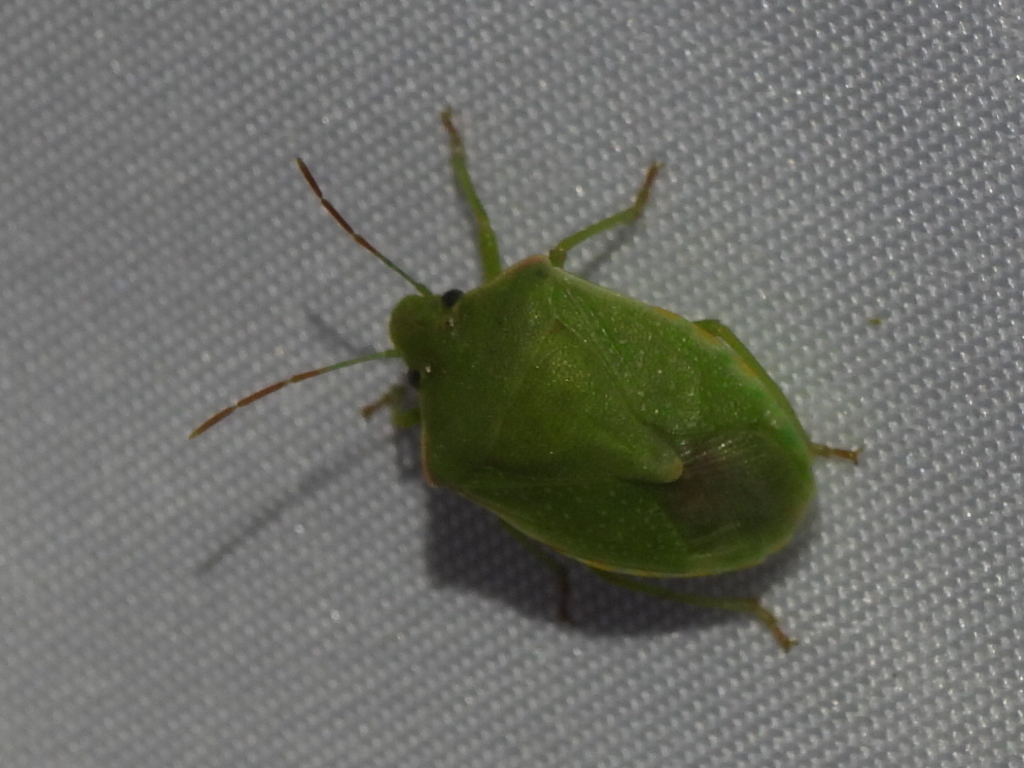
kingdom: Animalia
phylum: Arthropoda
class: Insecta
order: Hemiptera
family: Pentatomidae
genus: Thyanta
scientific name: Thyanta custator
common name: Stink bug
